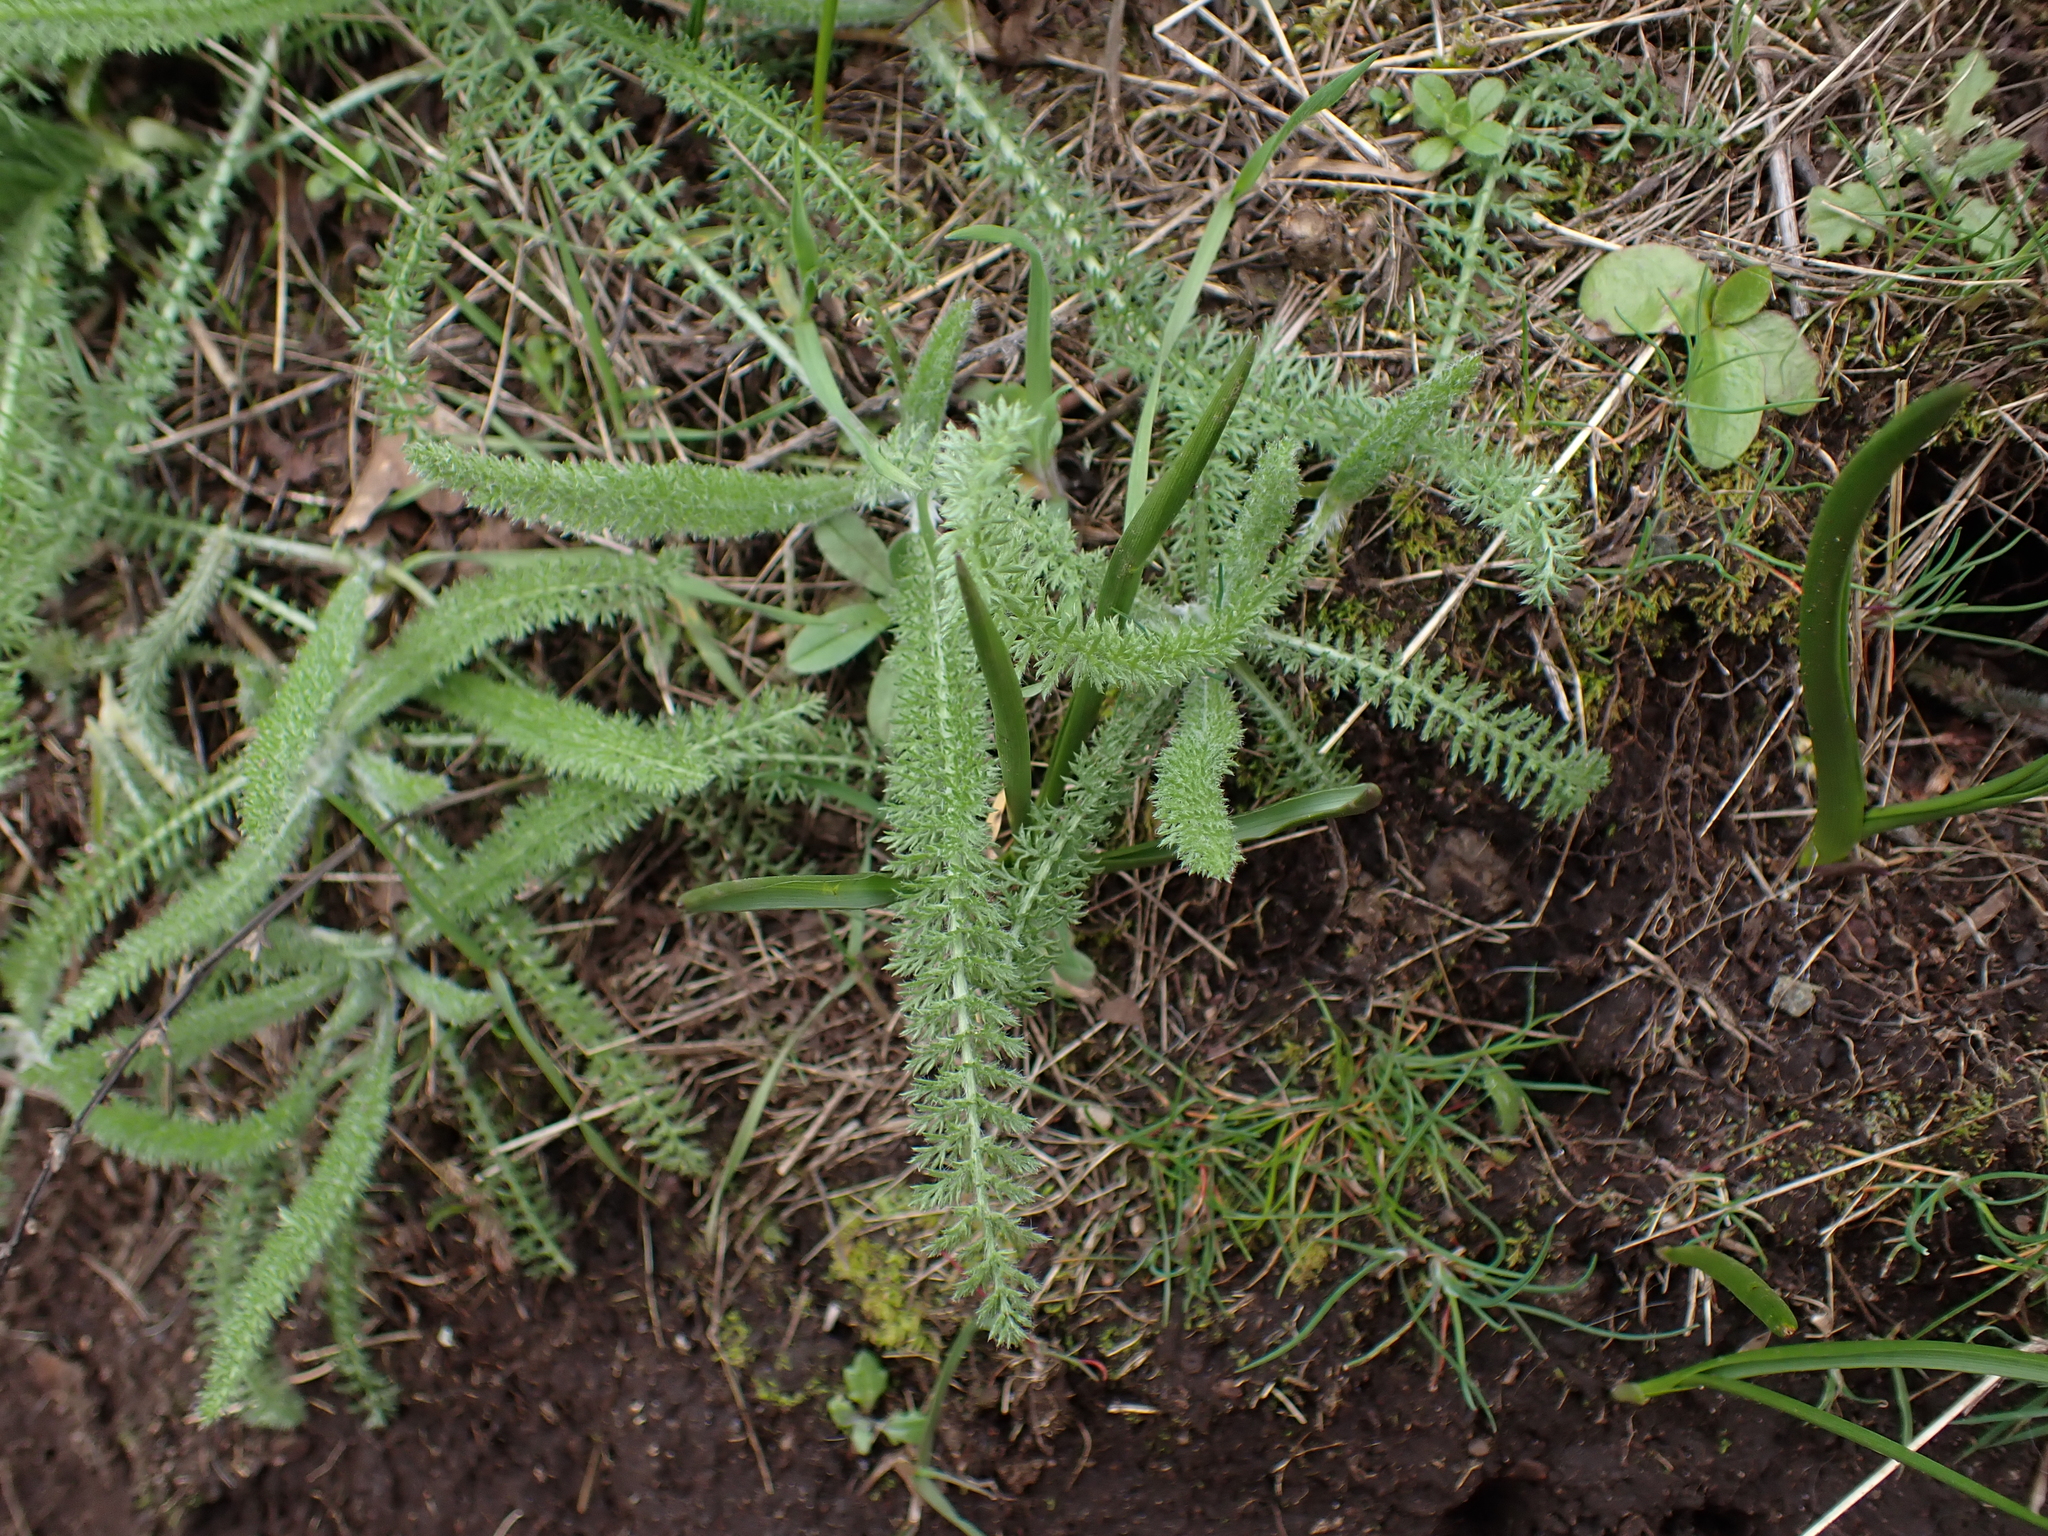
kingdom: Plantae
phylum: Tracheophyta
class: Magnoliopsida
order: Asterales
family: Asteraceae
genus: Achillea
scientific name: Achillea millefolium
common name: Yarrow
